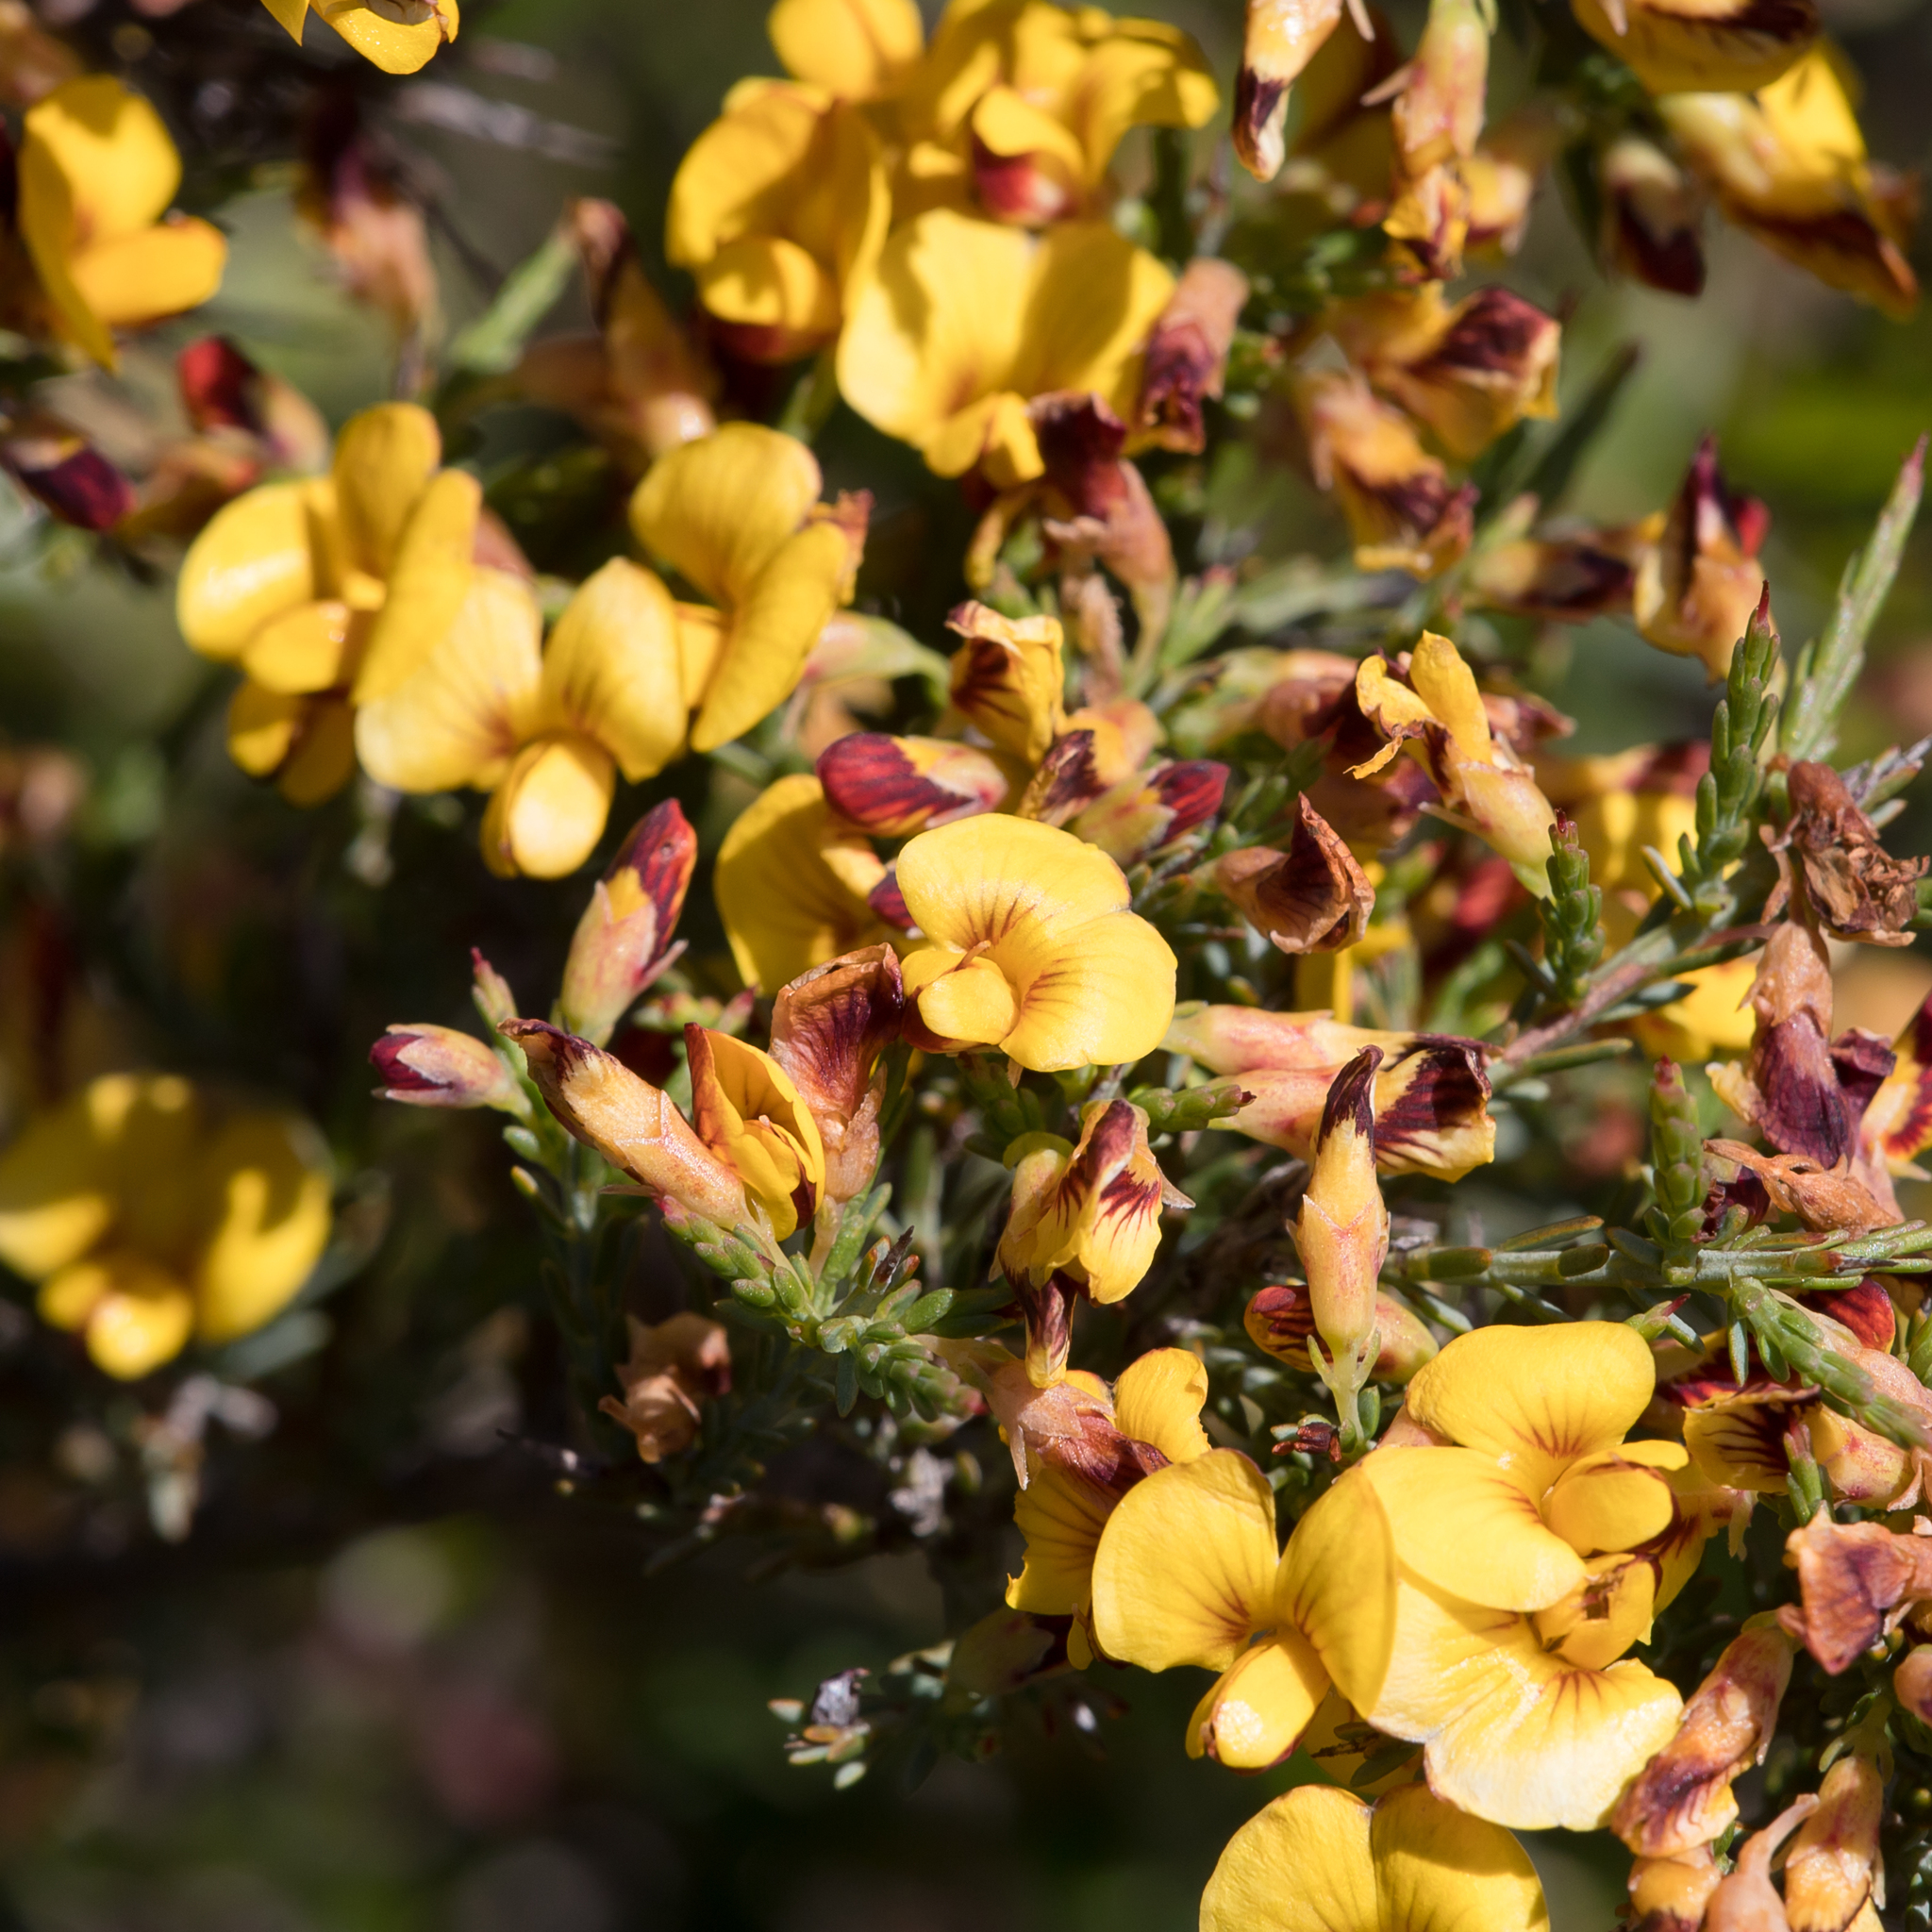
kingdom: Plantae
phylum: Tracheophyta
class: Magnoliopsida
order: Fabales
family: Fabaceae
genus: Eutaxia
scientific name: Eutaxia microphylla
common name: Mallee bush-pea
